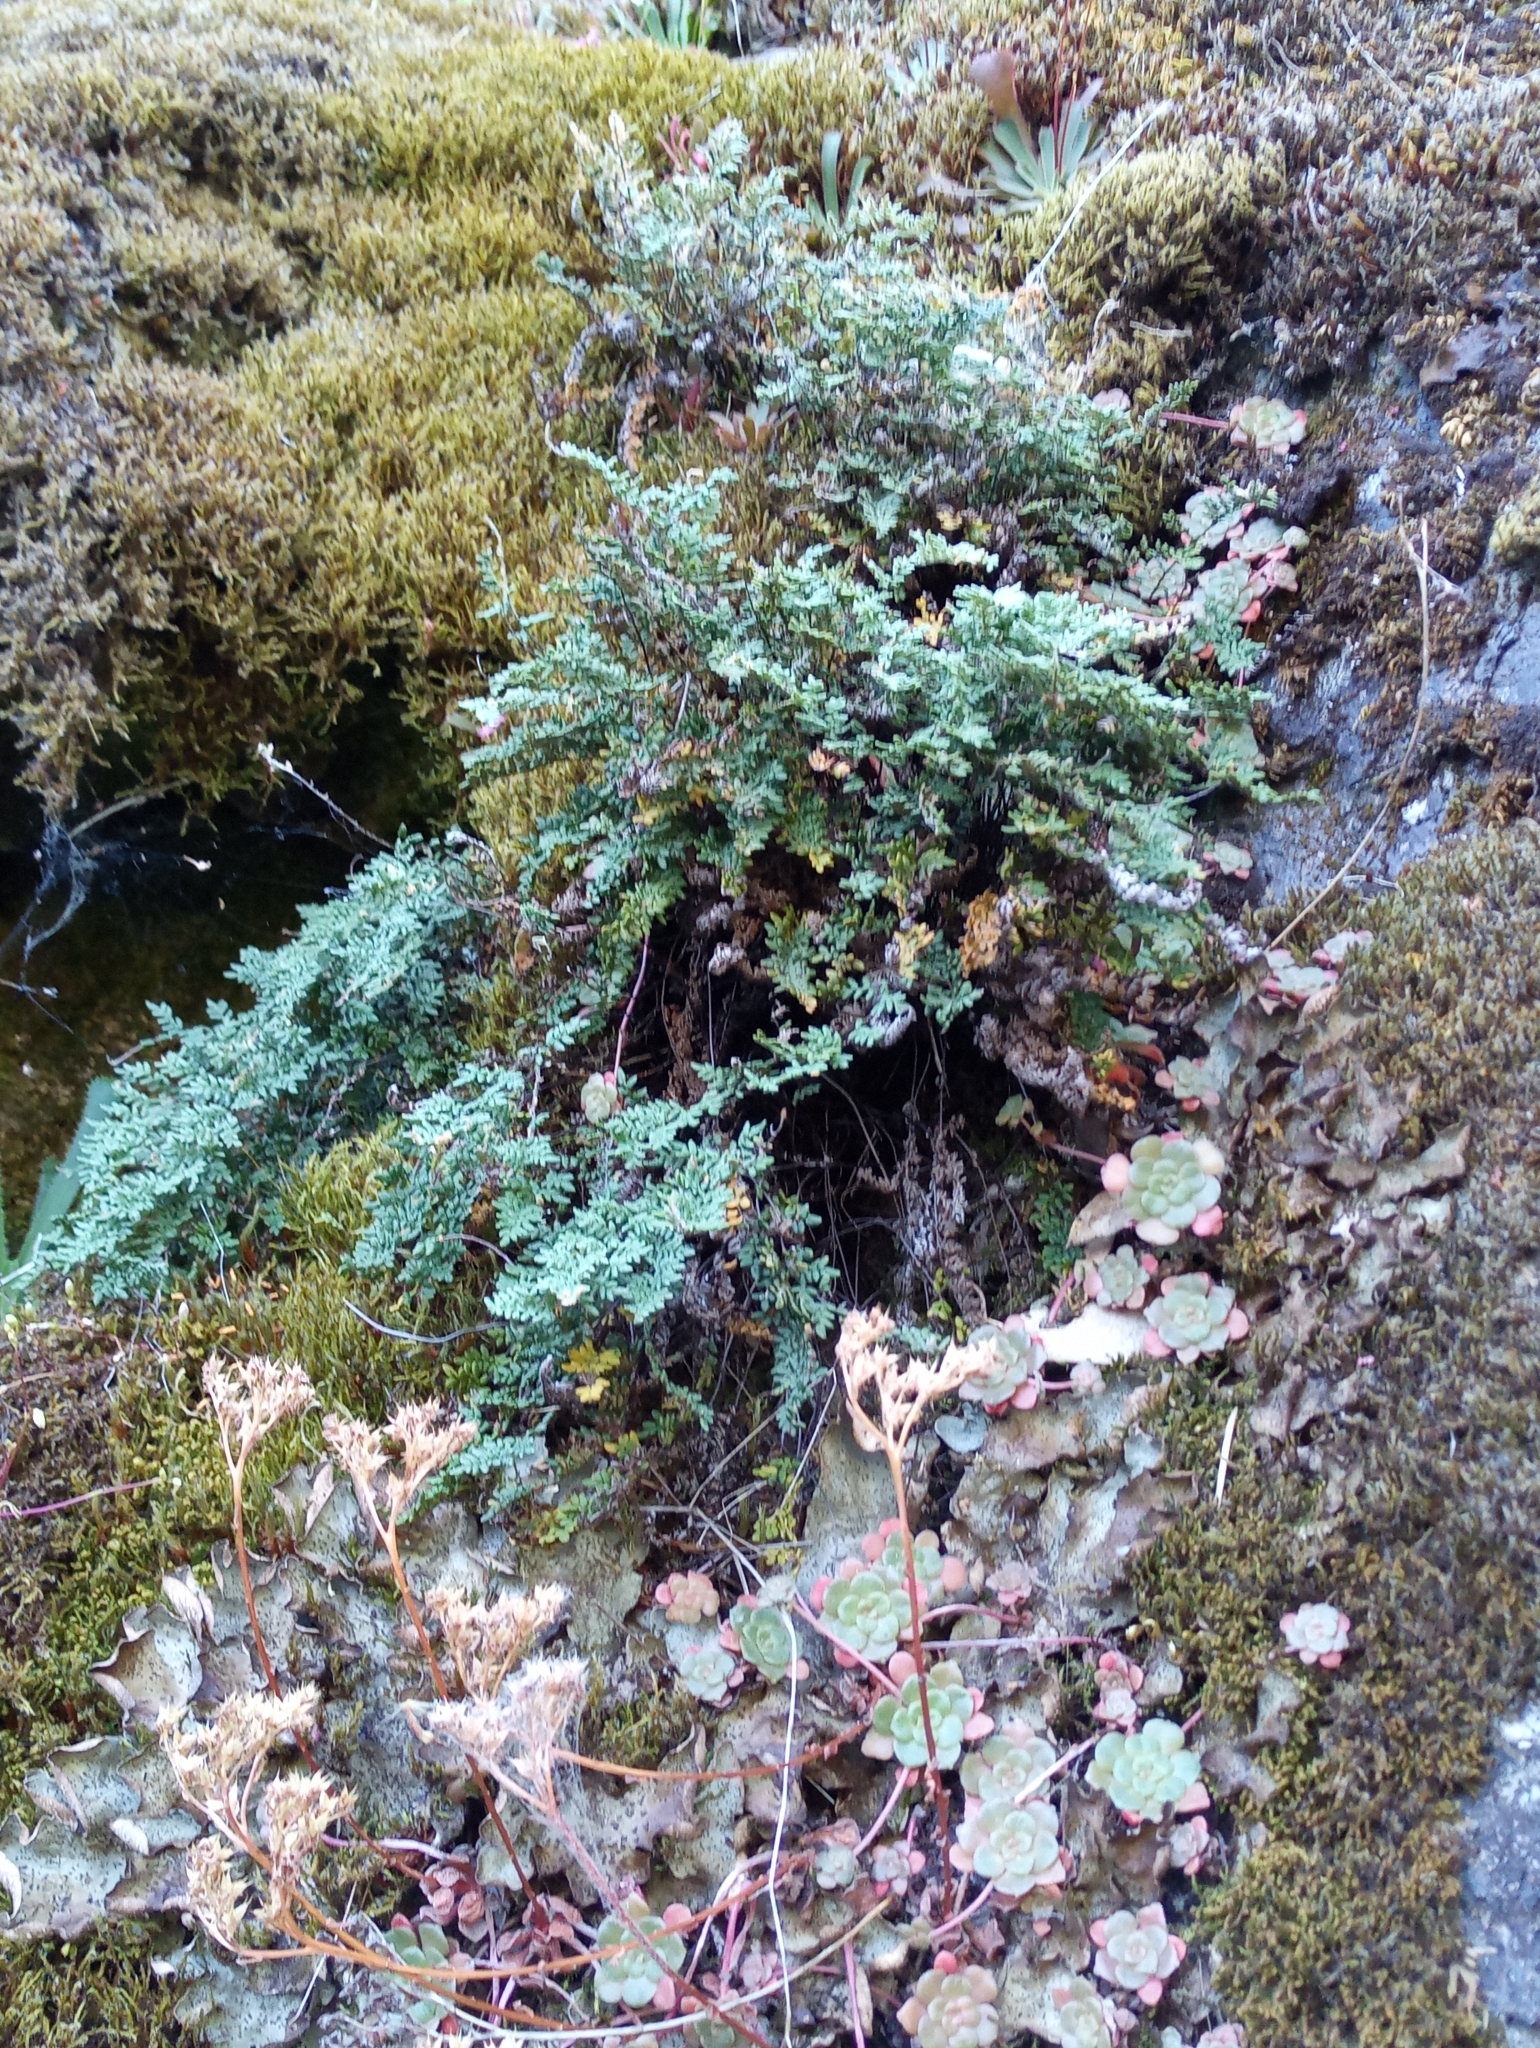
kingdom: Plantae
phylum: Tracheophyta
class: Polypodiopsida
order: Polypodiales
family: Pteridaceae
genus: Myriopteris
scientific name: Myriopteris gracillima
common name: Lace fern
